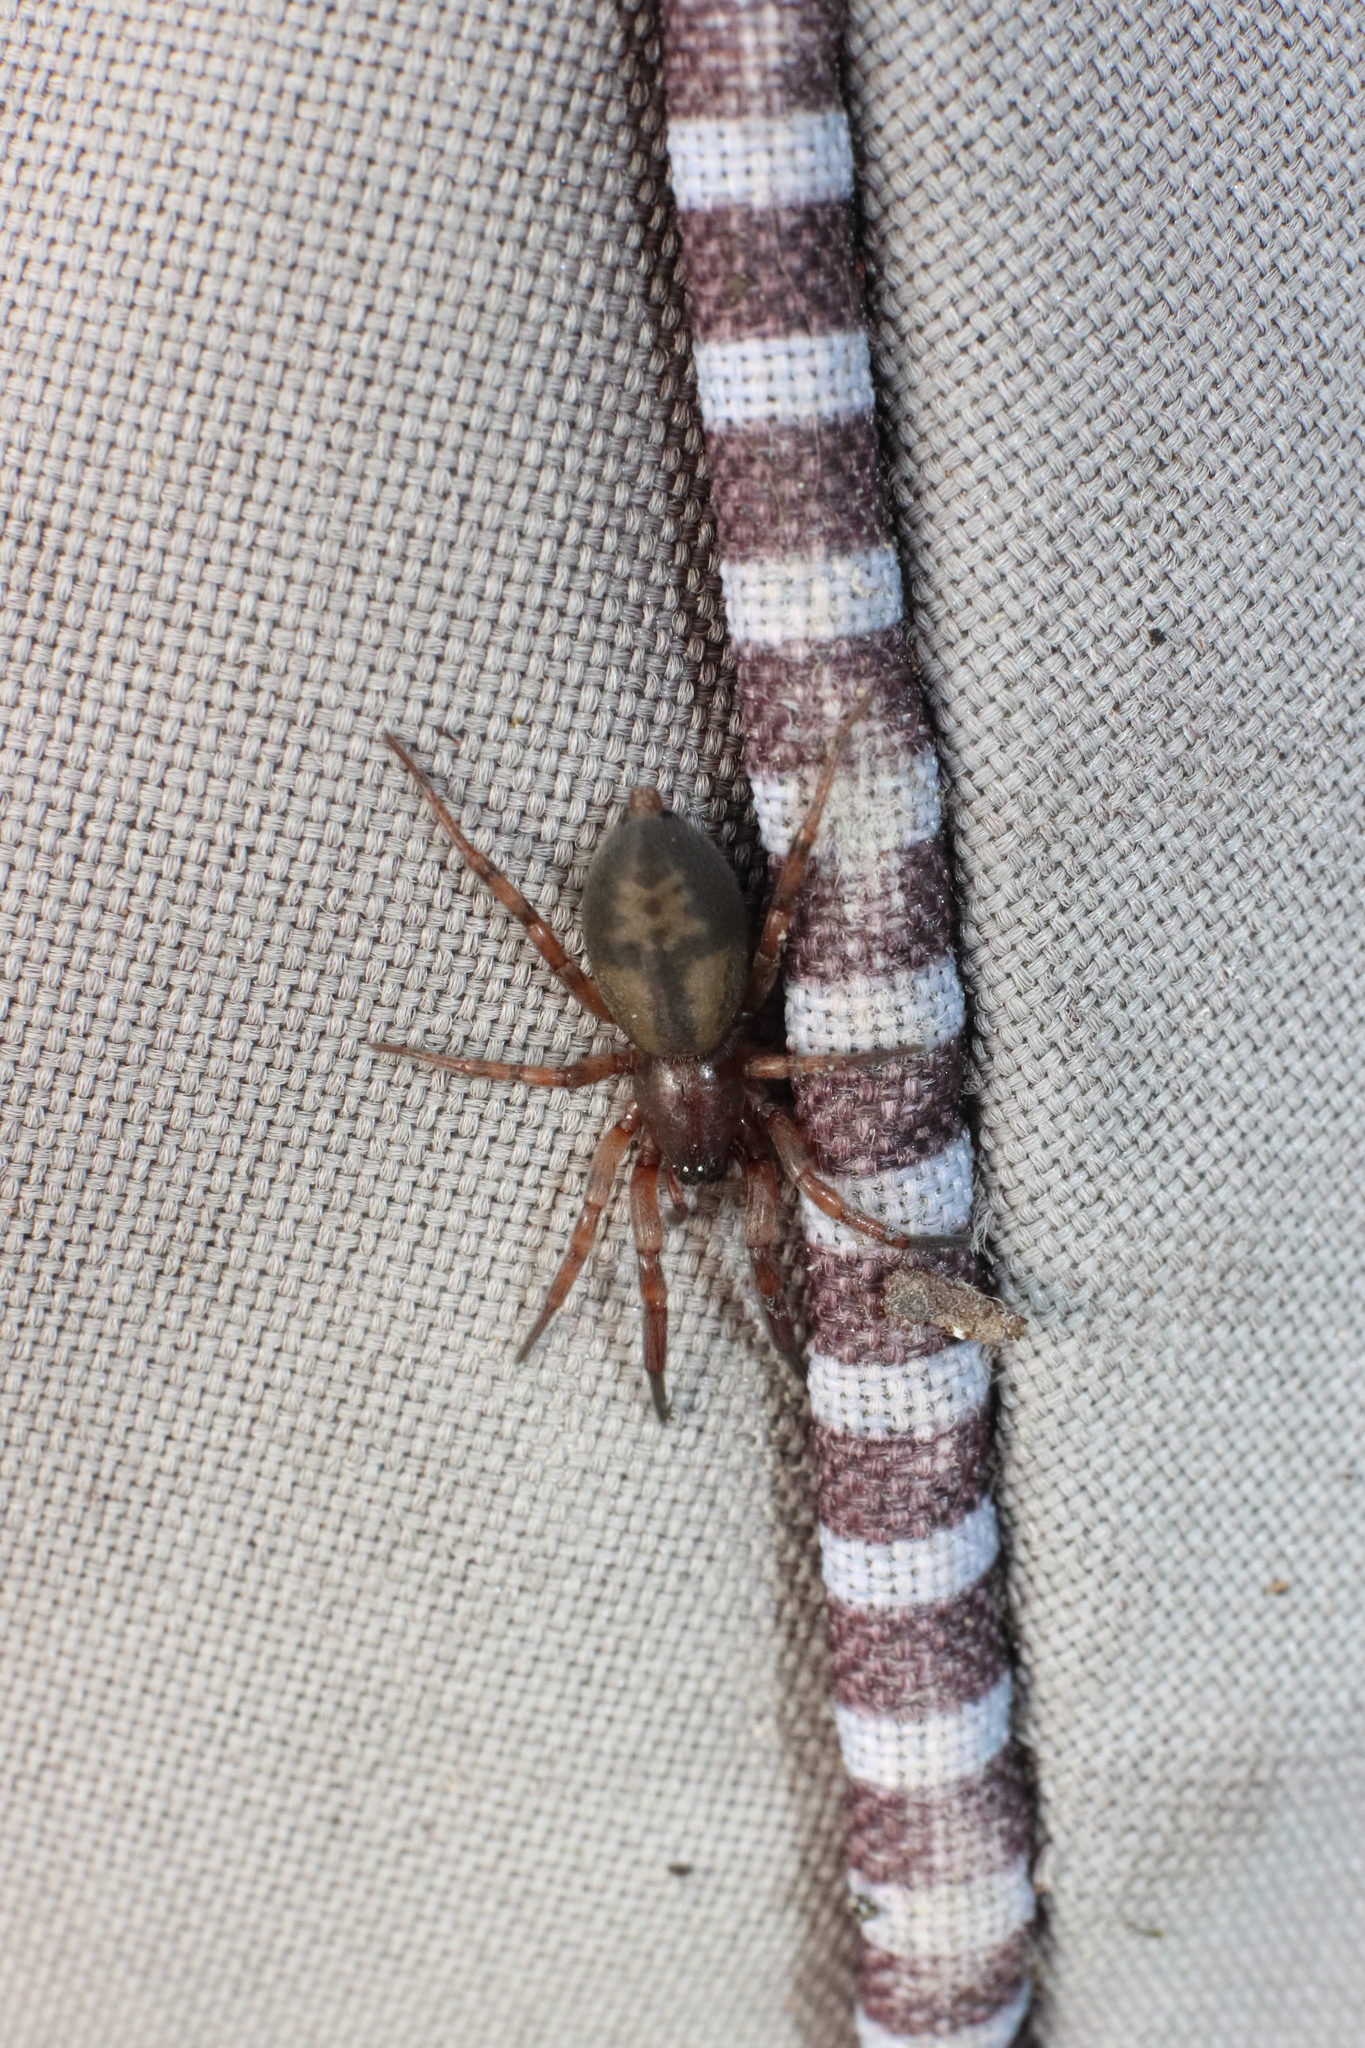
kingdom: Animalia
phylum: Arthropoda
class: Arachnida
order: Araneae
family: Gnaphosidae
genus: Intruda
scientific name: Intruda signata
